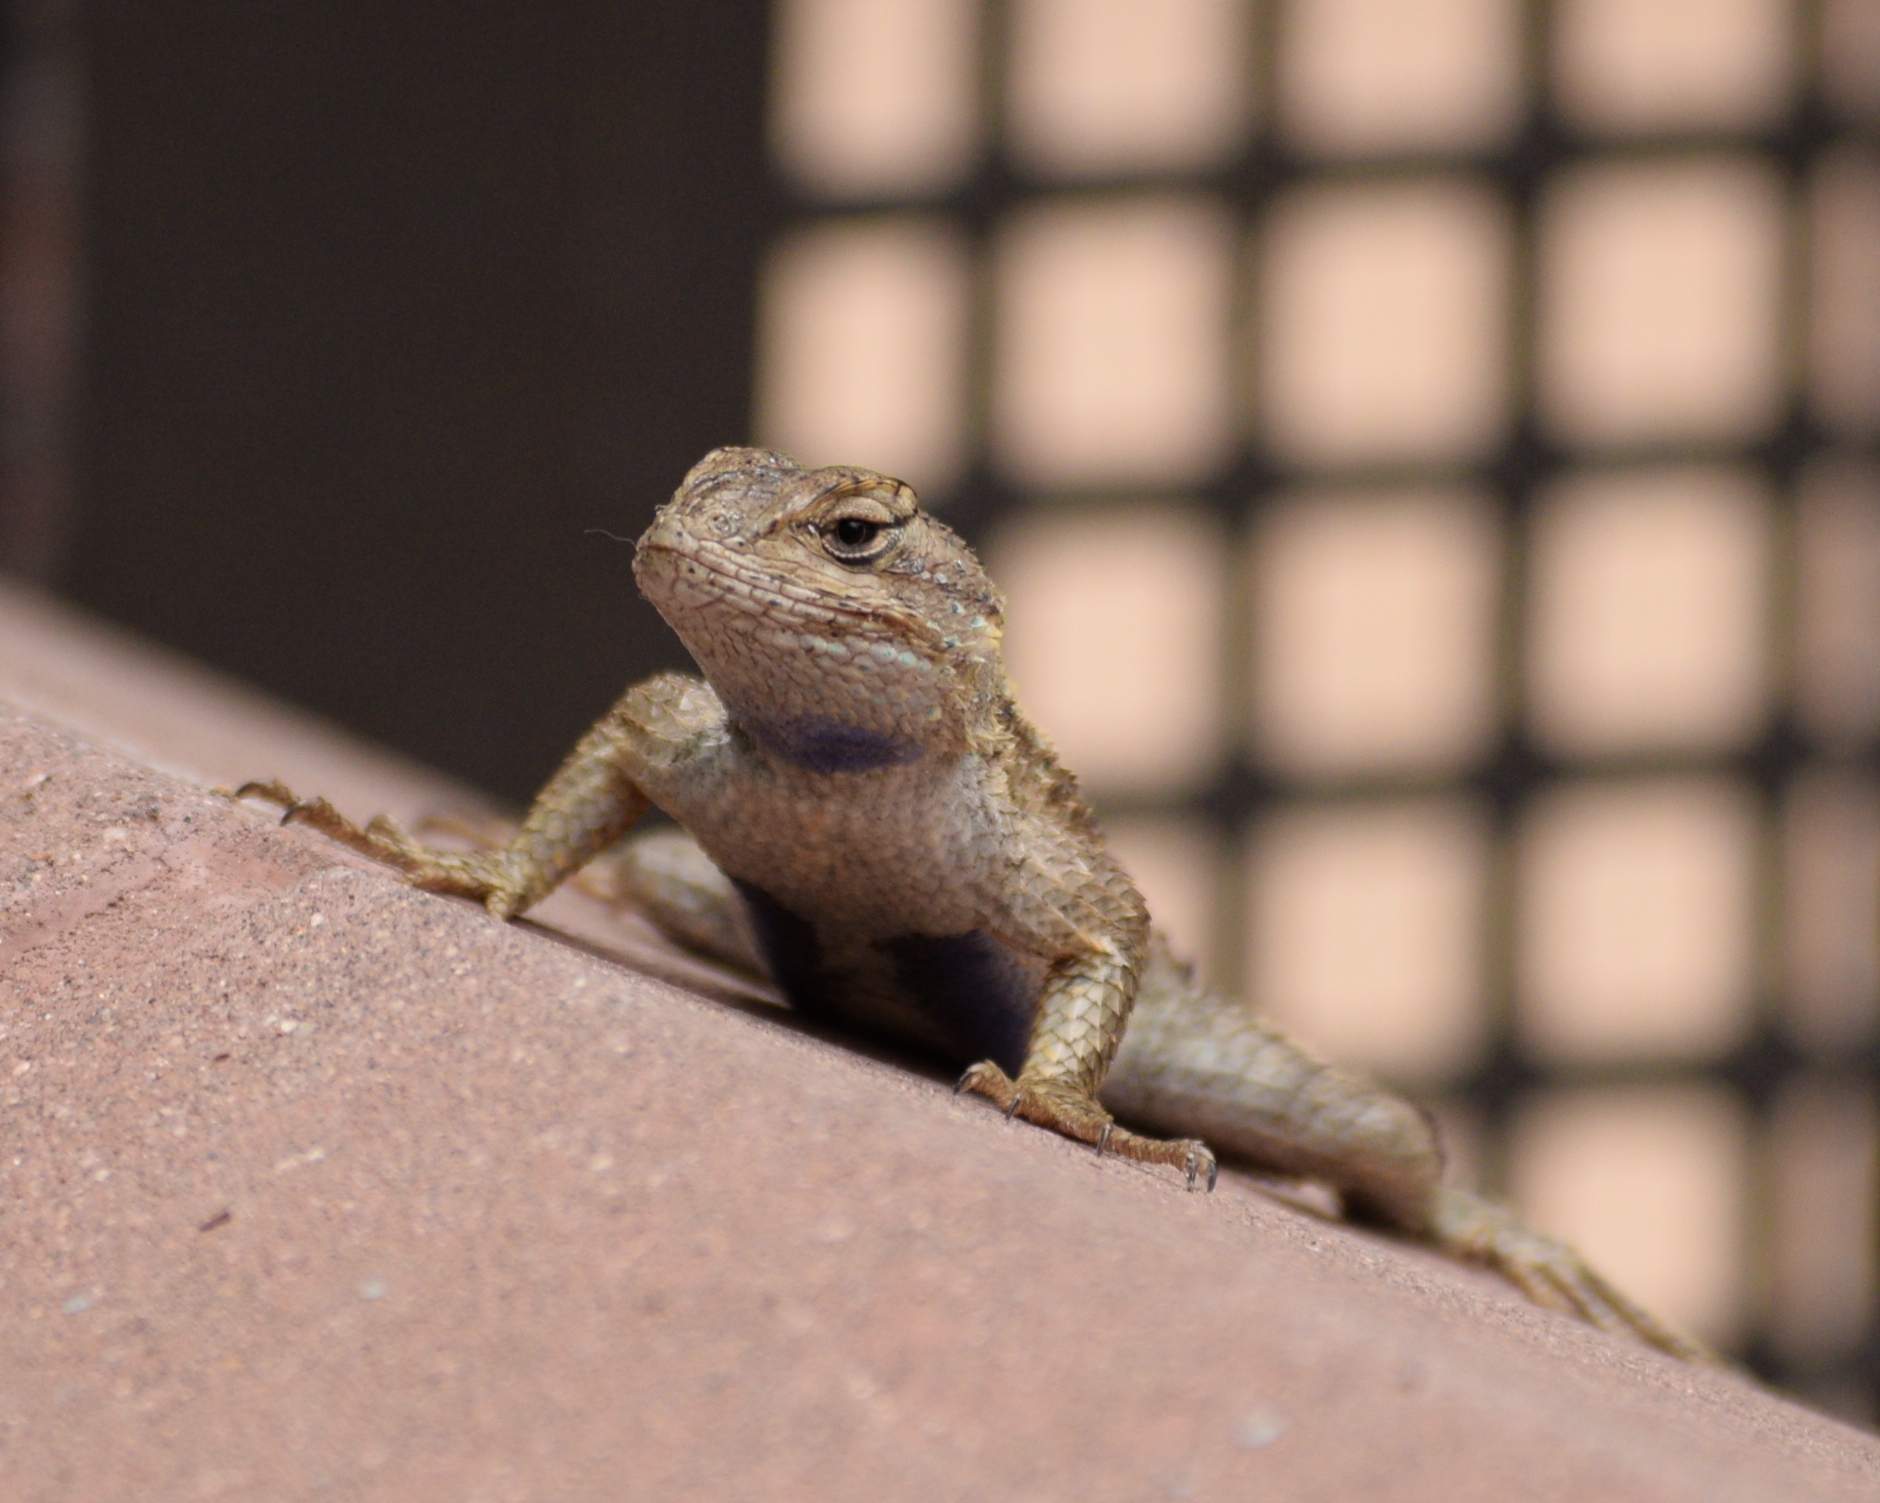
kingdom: Animalia
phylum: Chordata
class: Squamata
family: Phrynosomatidae
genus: Sceloporus
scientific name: Sceloporus occidentalis
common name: Western fence lizard
